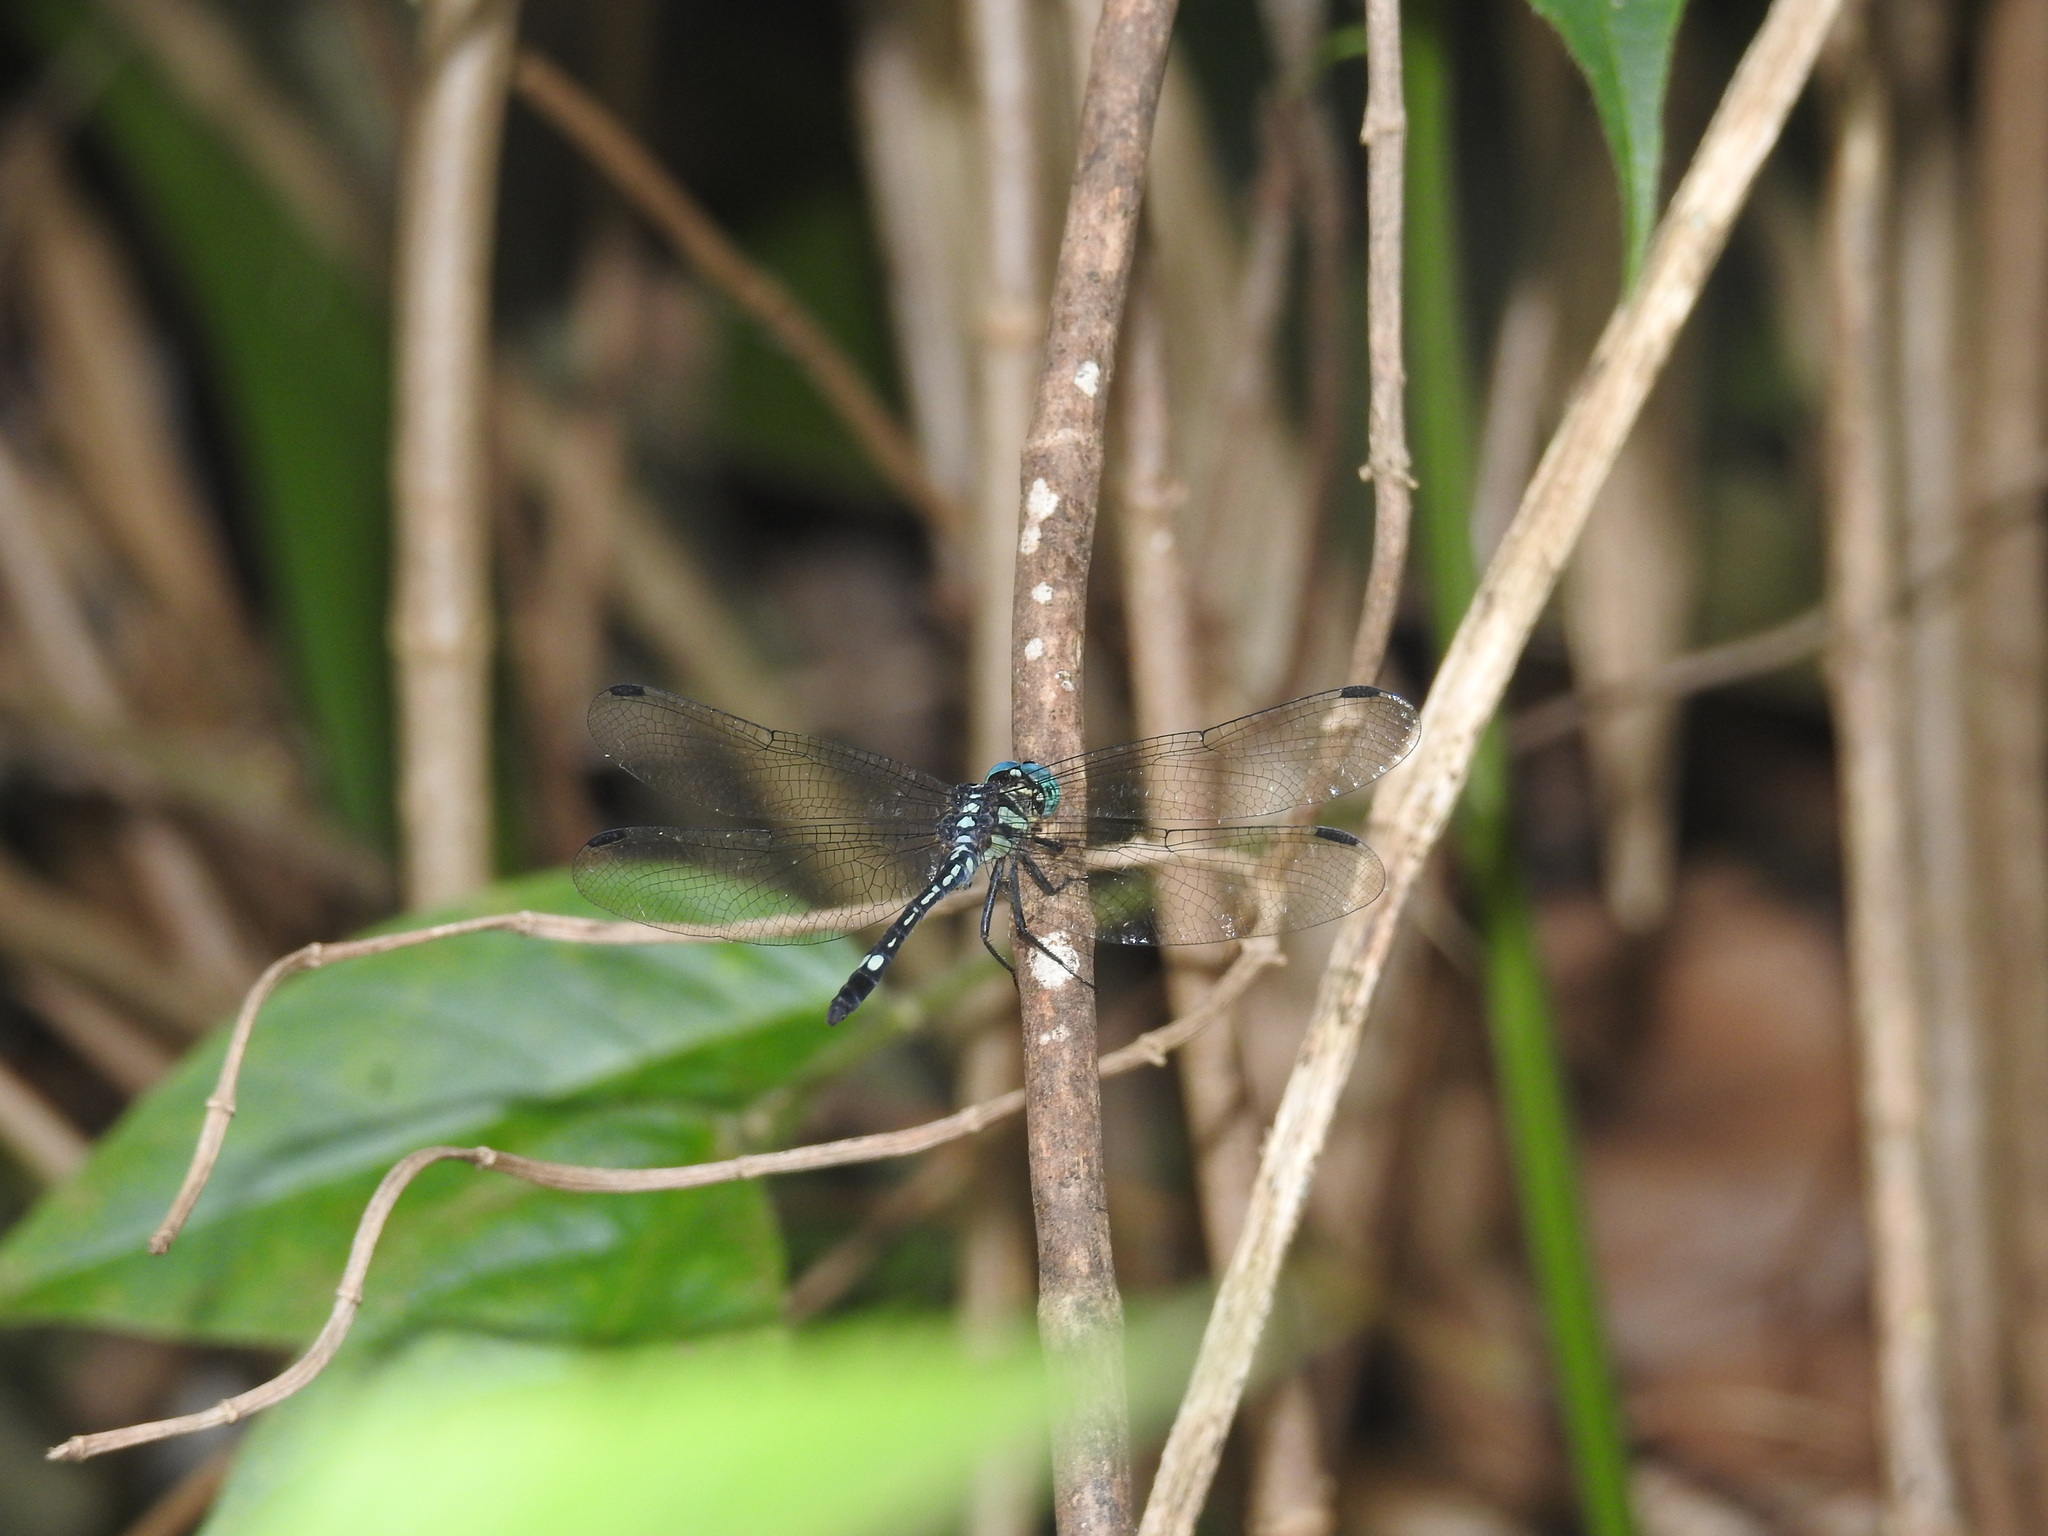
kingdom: Animalia
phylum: Arthropoda
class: Insecta
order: Odonata
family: Libellulidae
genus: Hylaeothemis
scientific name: Hylaeothemis apicalis
